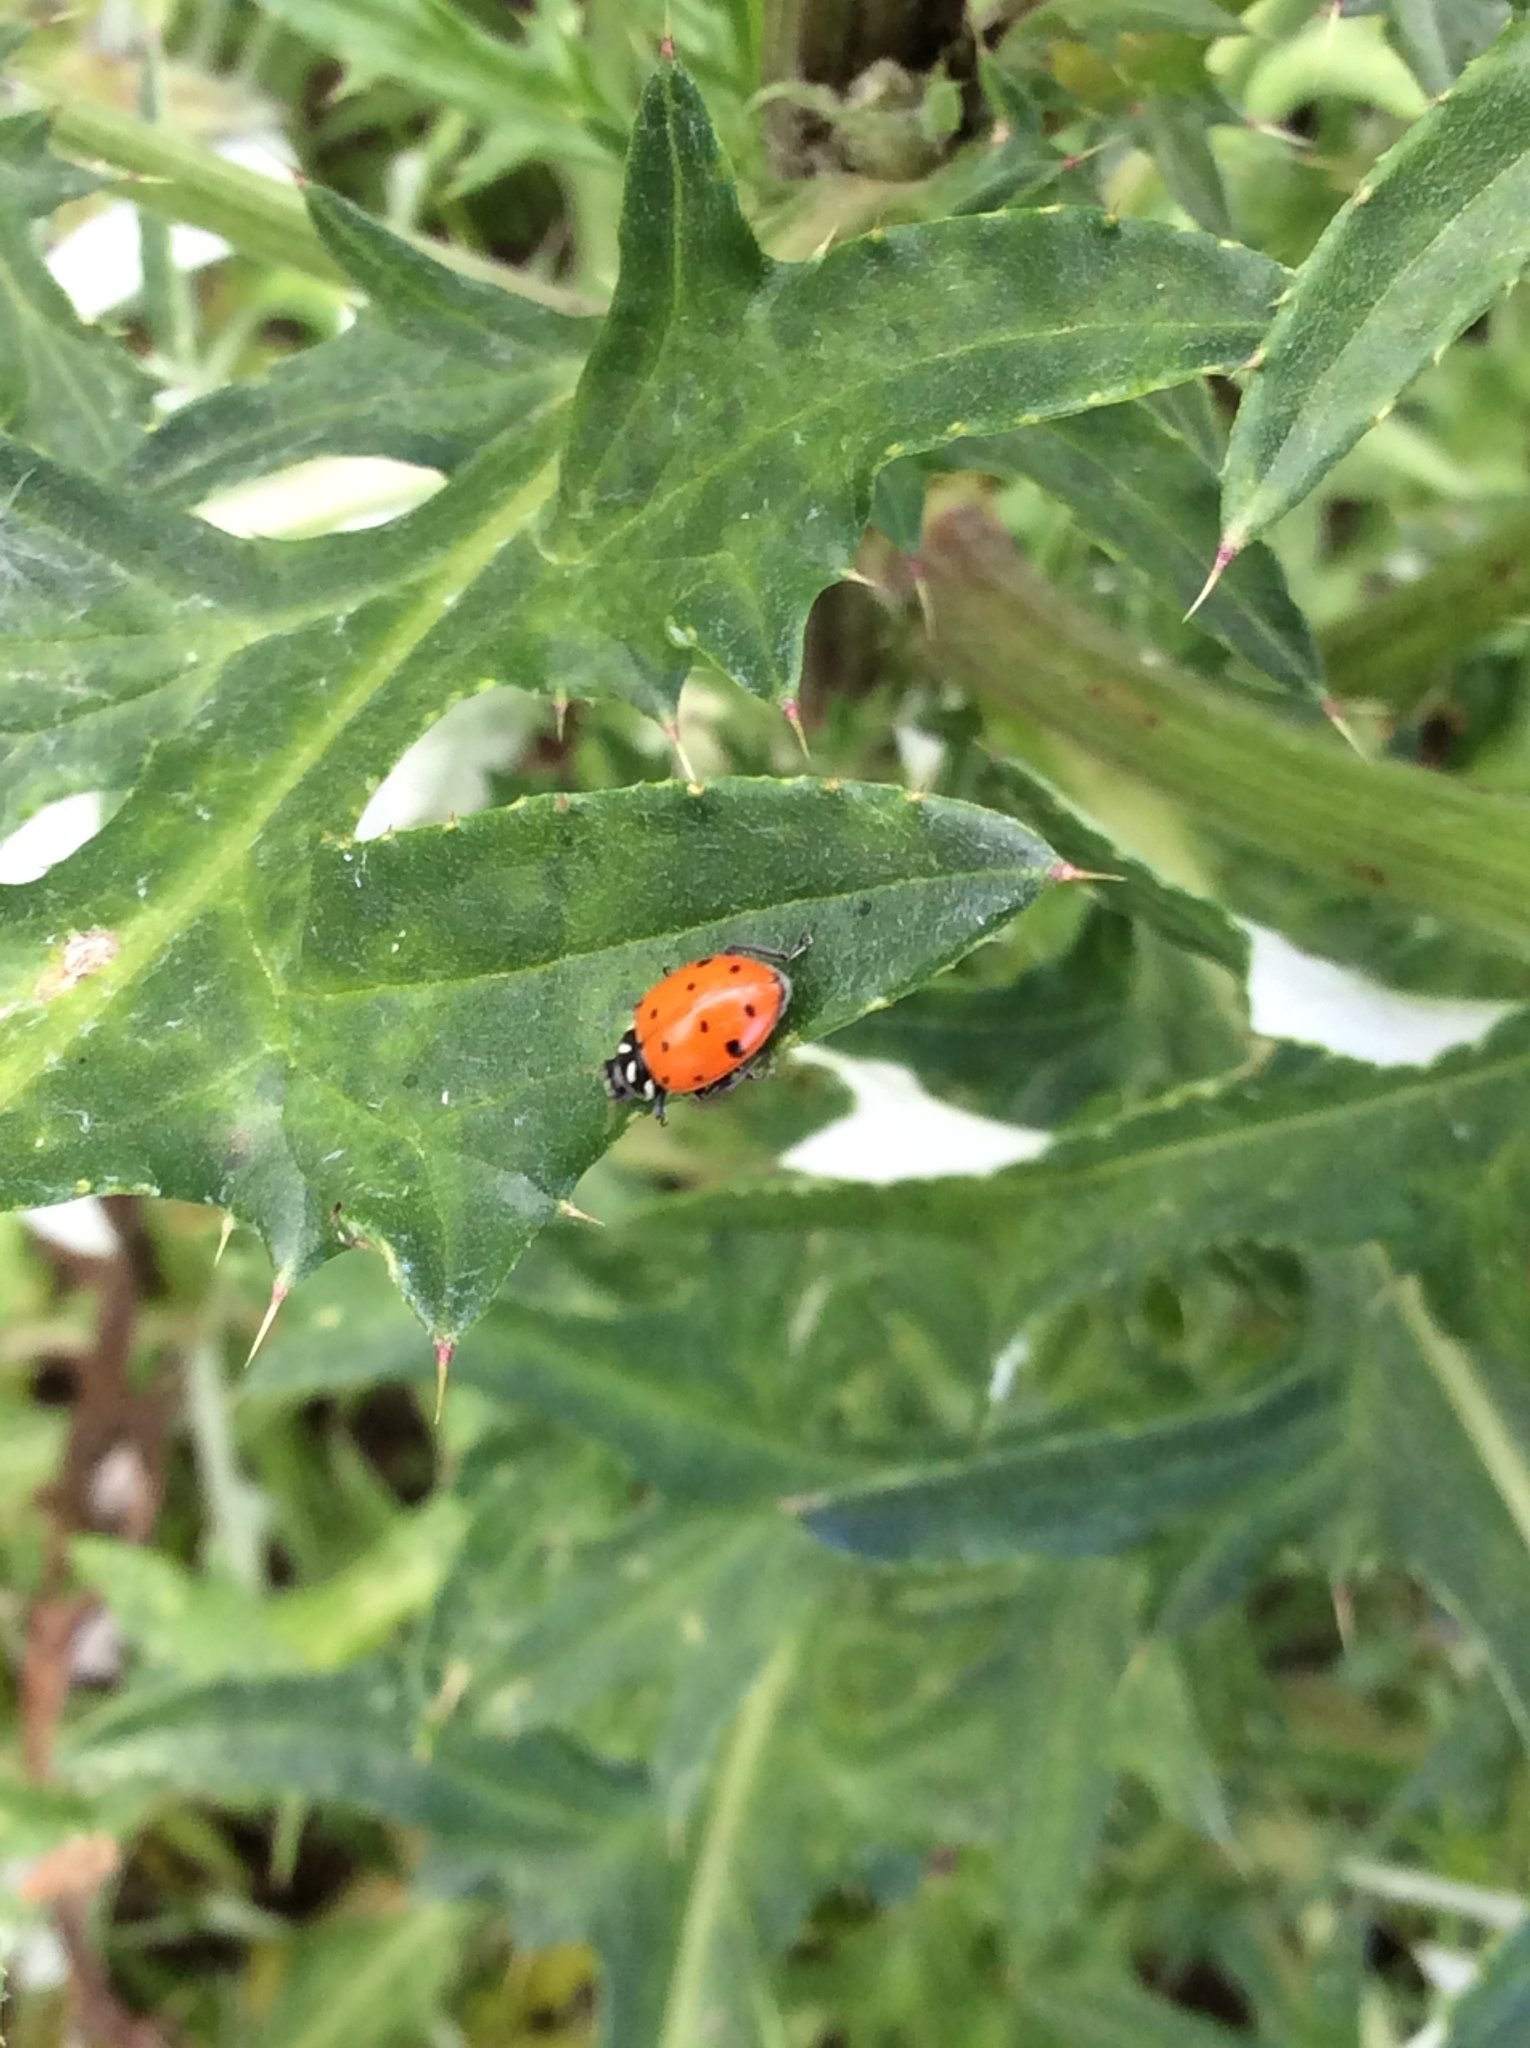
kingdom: Animalia
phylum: Arthropoda
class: Insecta
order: Coleoptera
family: Coccinellidae
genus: Hippodamia
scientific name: Hippodamia convergens
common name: Convergent lady beetle
